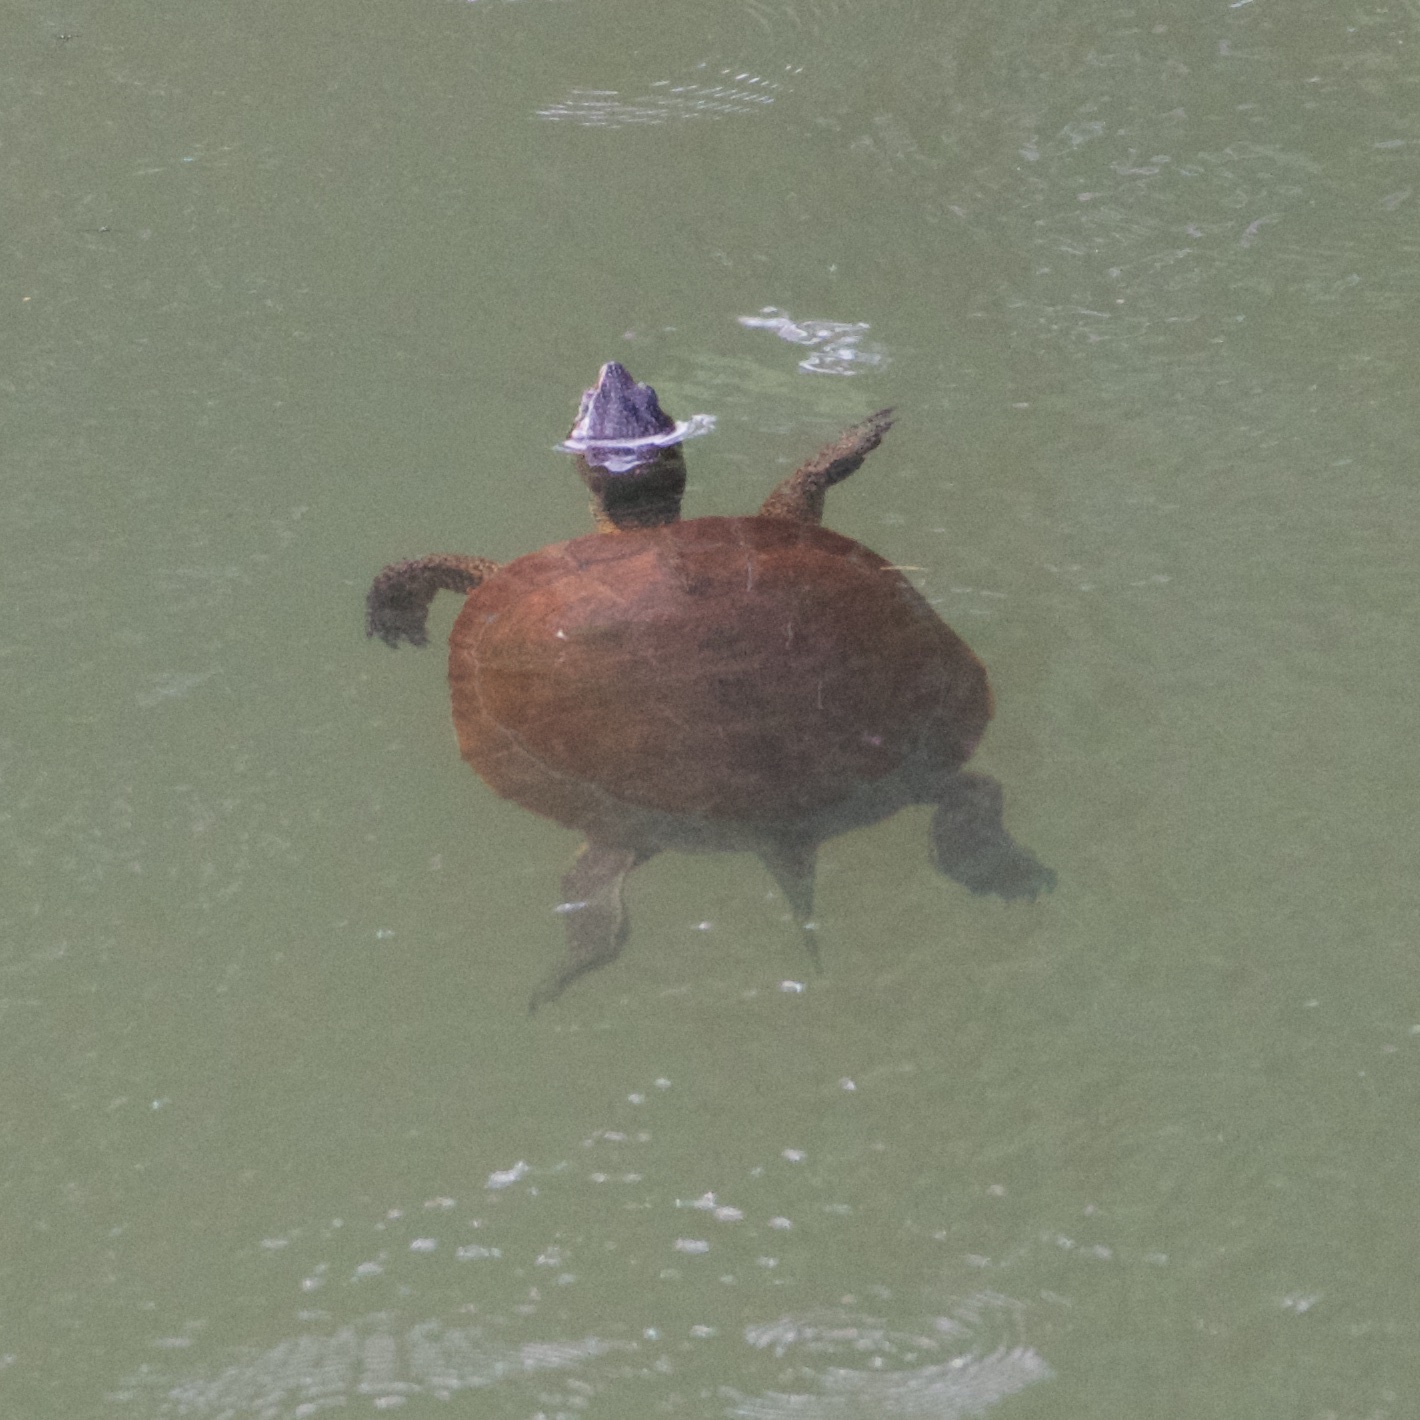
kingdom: Animalia
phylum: Chordata
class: Testudines
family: Emydidae
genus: Actinemys
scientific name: Actinemys marmorata
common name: Western pond turtle
